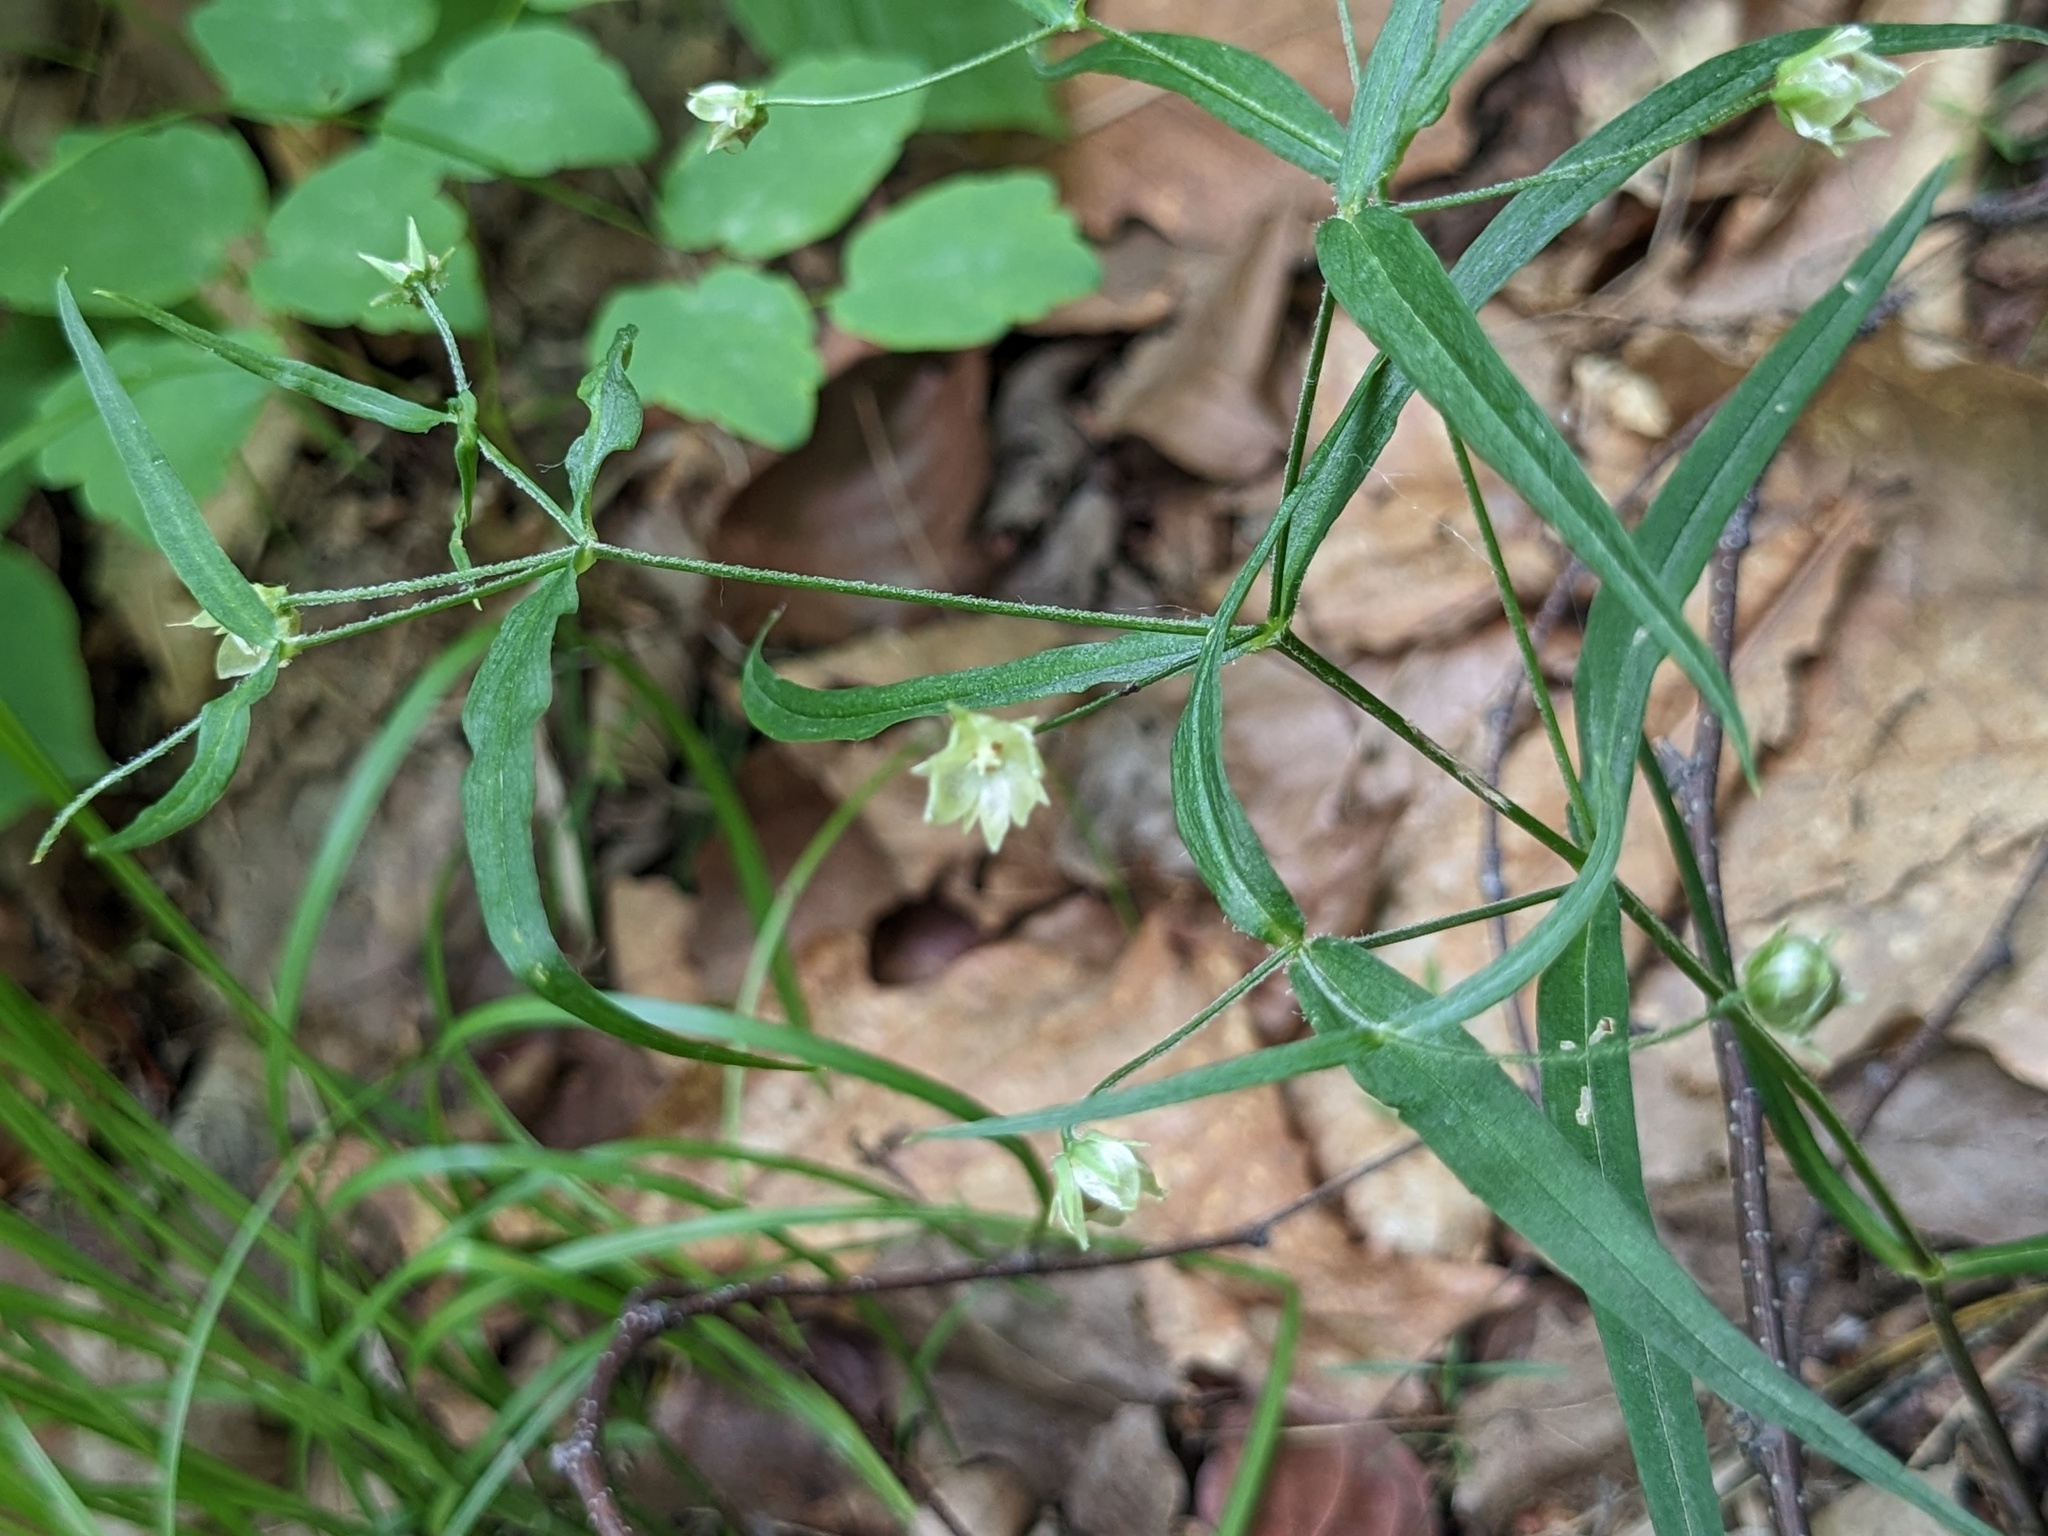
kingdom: Plantae
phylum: Tracheophyta
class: Magnoliopsida
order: Caryophyllales
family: Caryophyllaceae
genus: Pseudostellaria
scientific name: Pseudostellaria sylvatica
